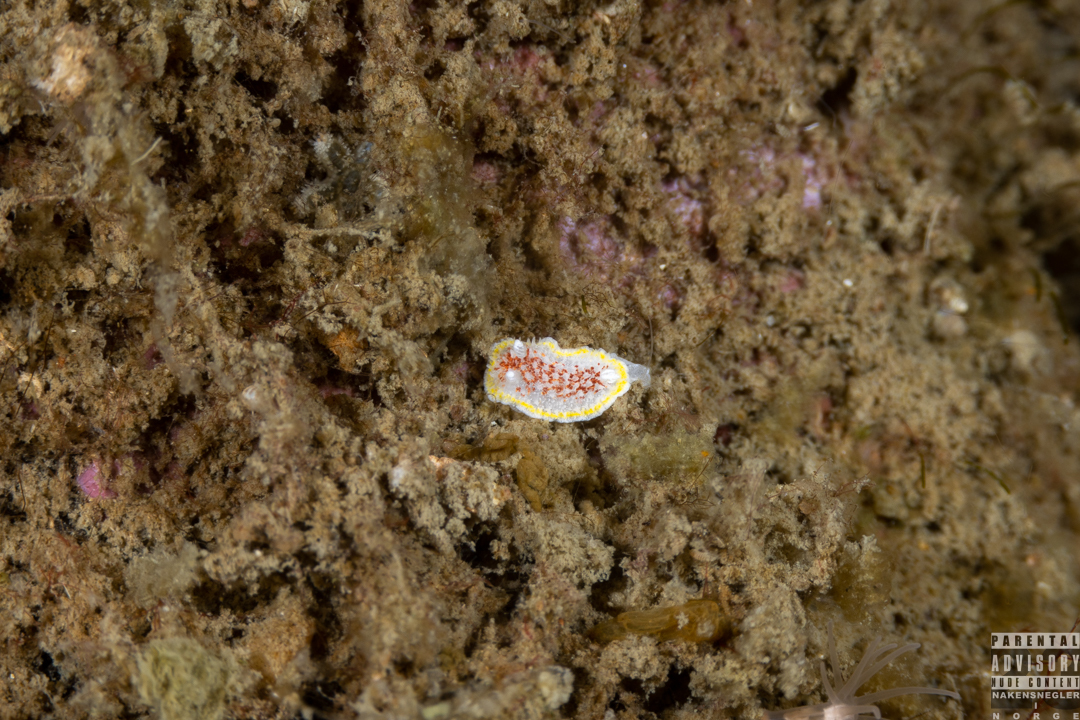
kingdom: Animalia
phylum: Mollusca
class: Gastropoda
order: Nudibranchia
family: Calycidorididae
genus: Diaphorodoris
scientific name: Diaphorodoris luteocincta
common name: Fried egg nudibranch
